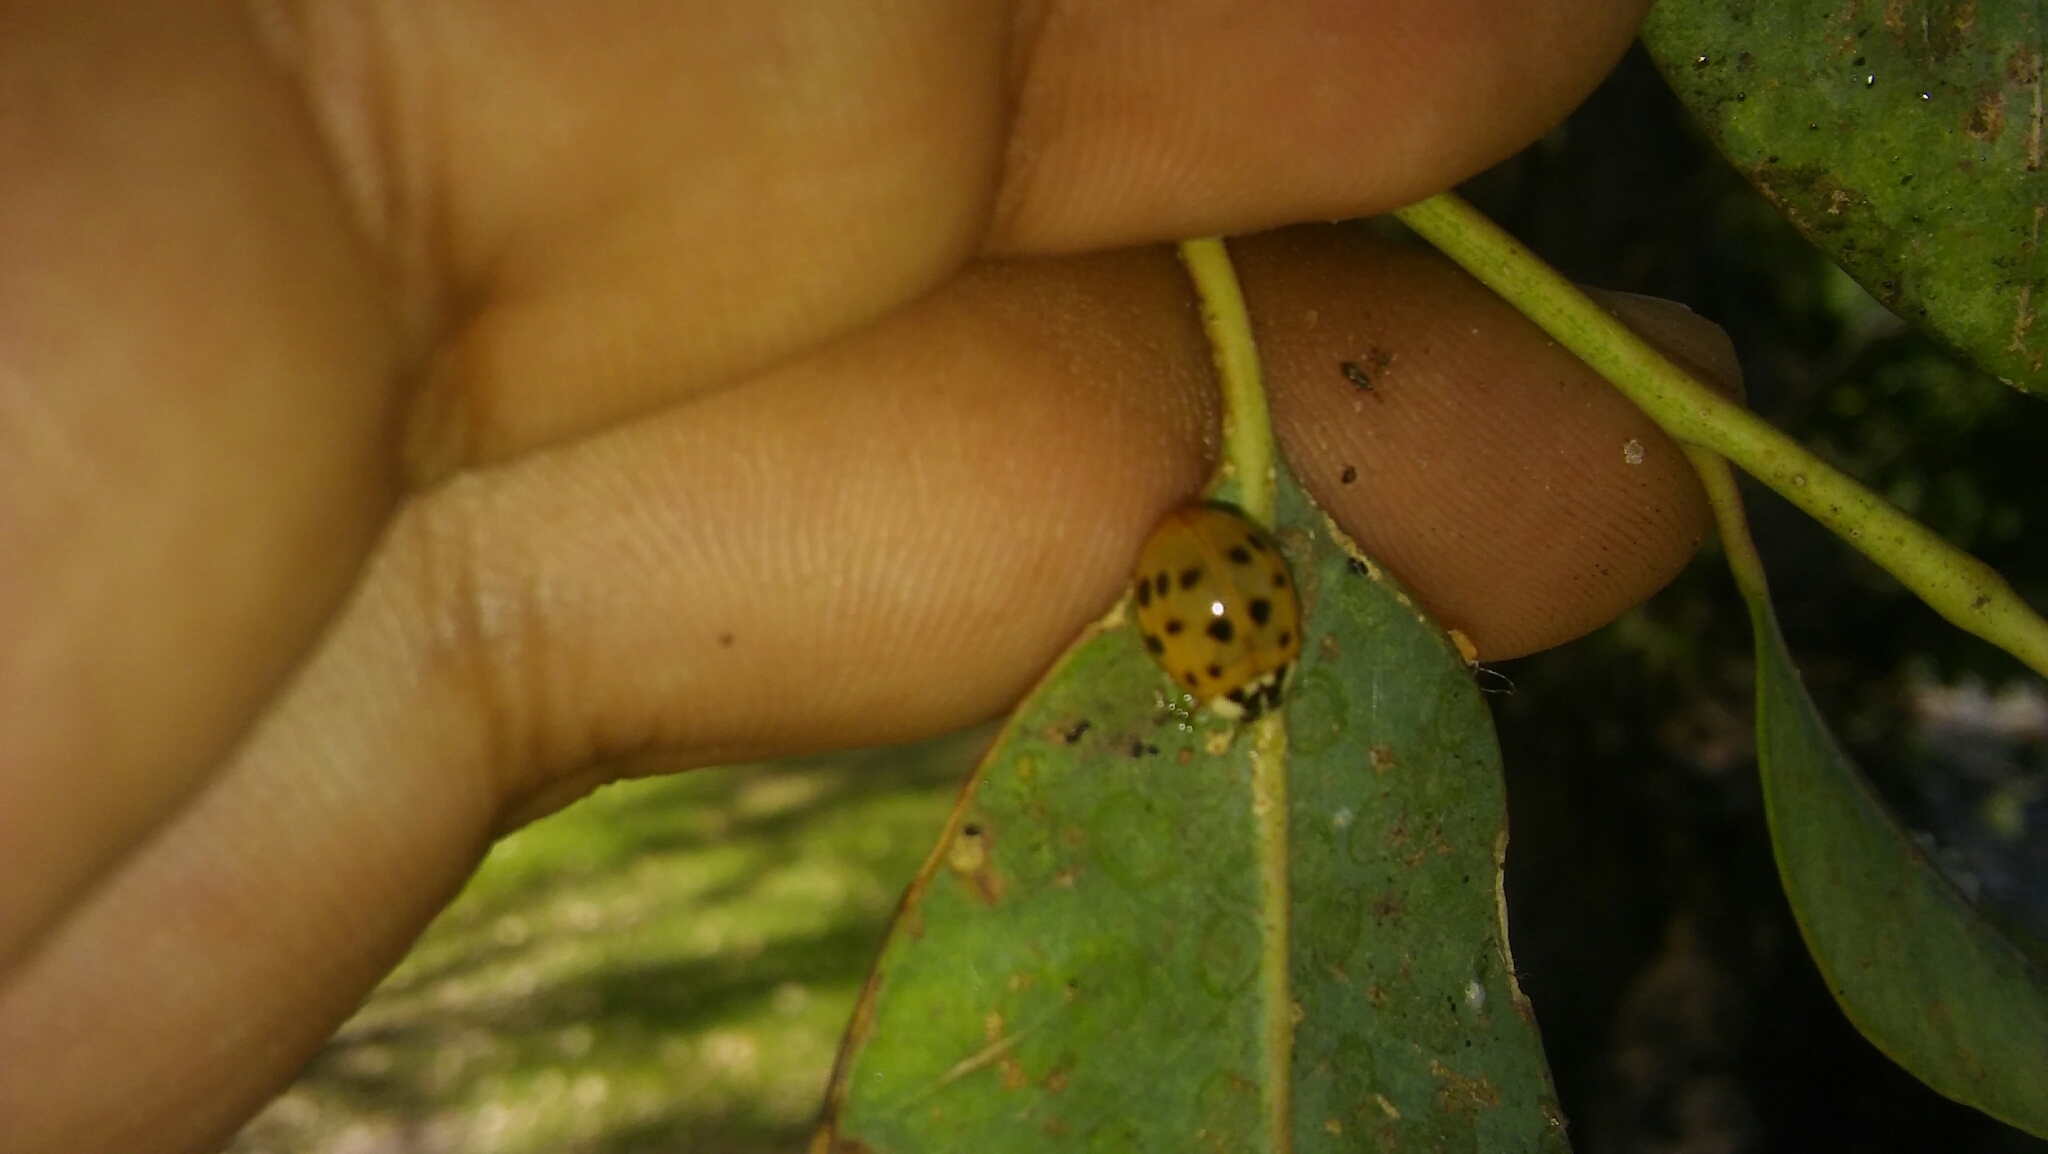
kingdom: Animalia
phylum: Arthropoda
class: Insecta
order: Coleoptera
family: Coccinellidae
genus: Harmonia
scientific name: Harmonia axyridis
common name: Harlequin ladybird
